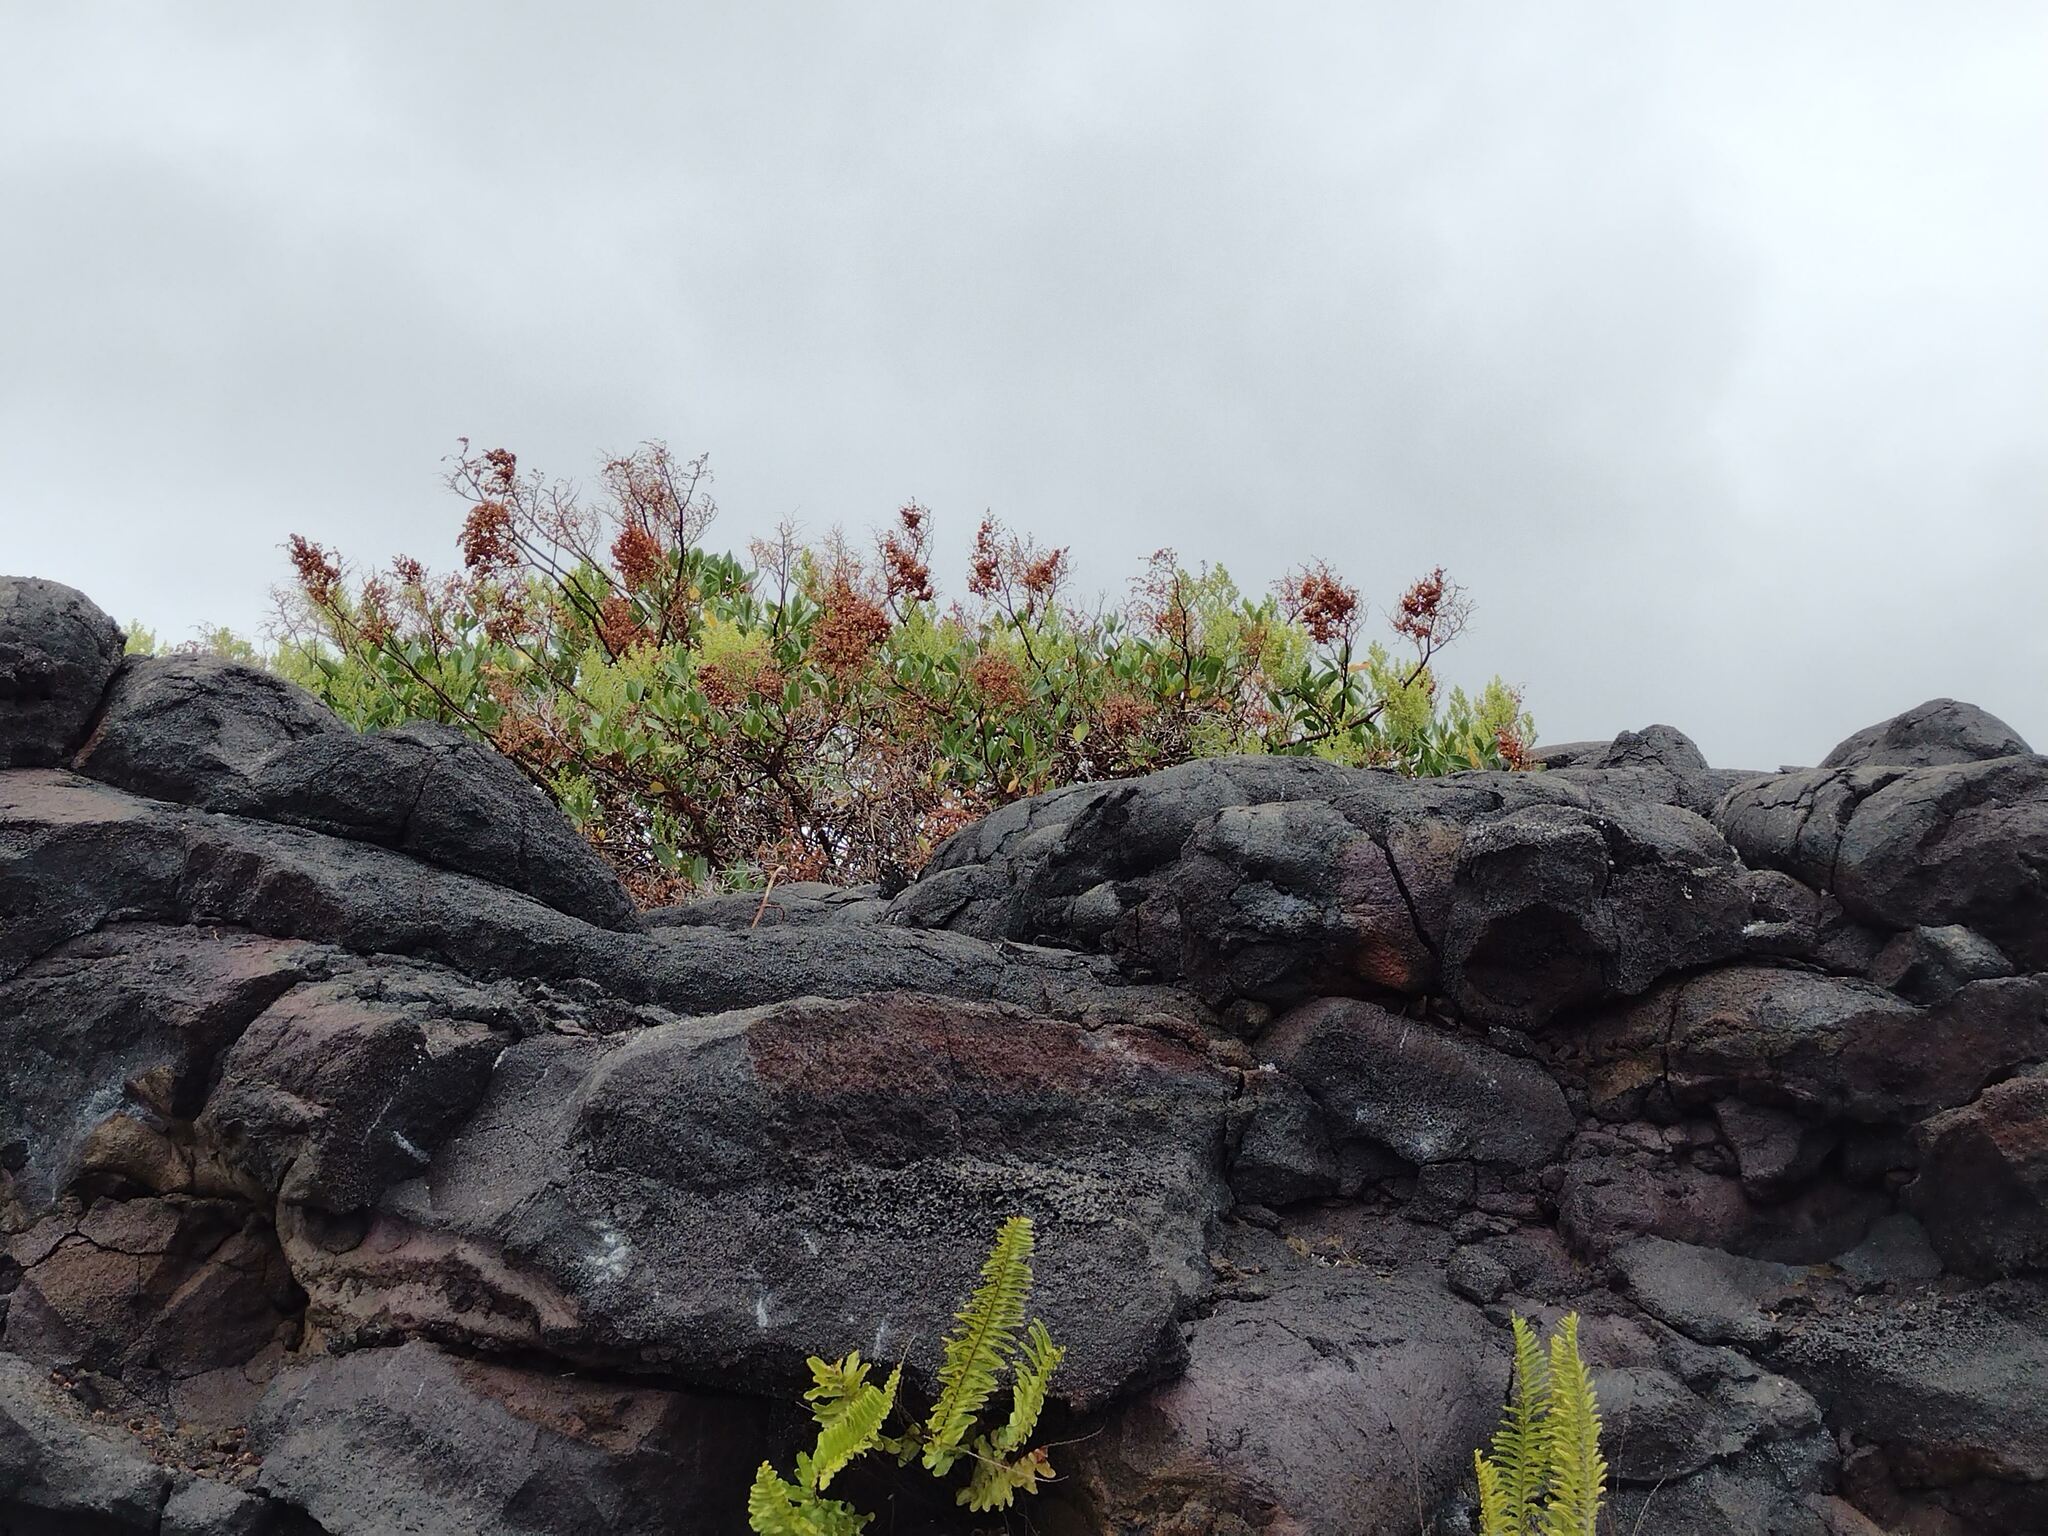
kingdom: Plantae
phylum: Tracheophyta
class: Magnoliopsida
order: Caryophyllales
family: Polygonaceae
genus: Rumex
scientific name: Rumex skottsbergii
